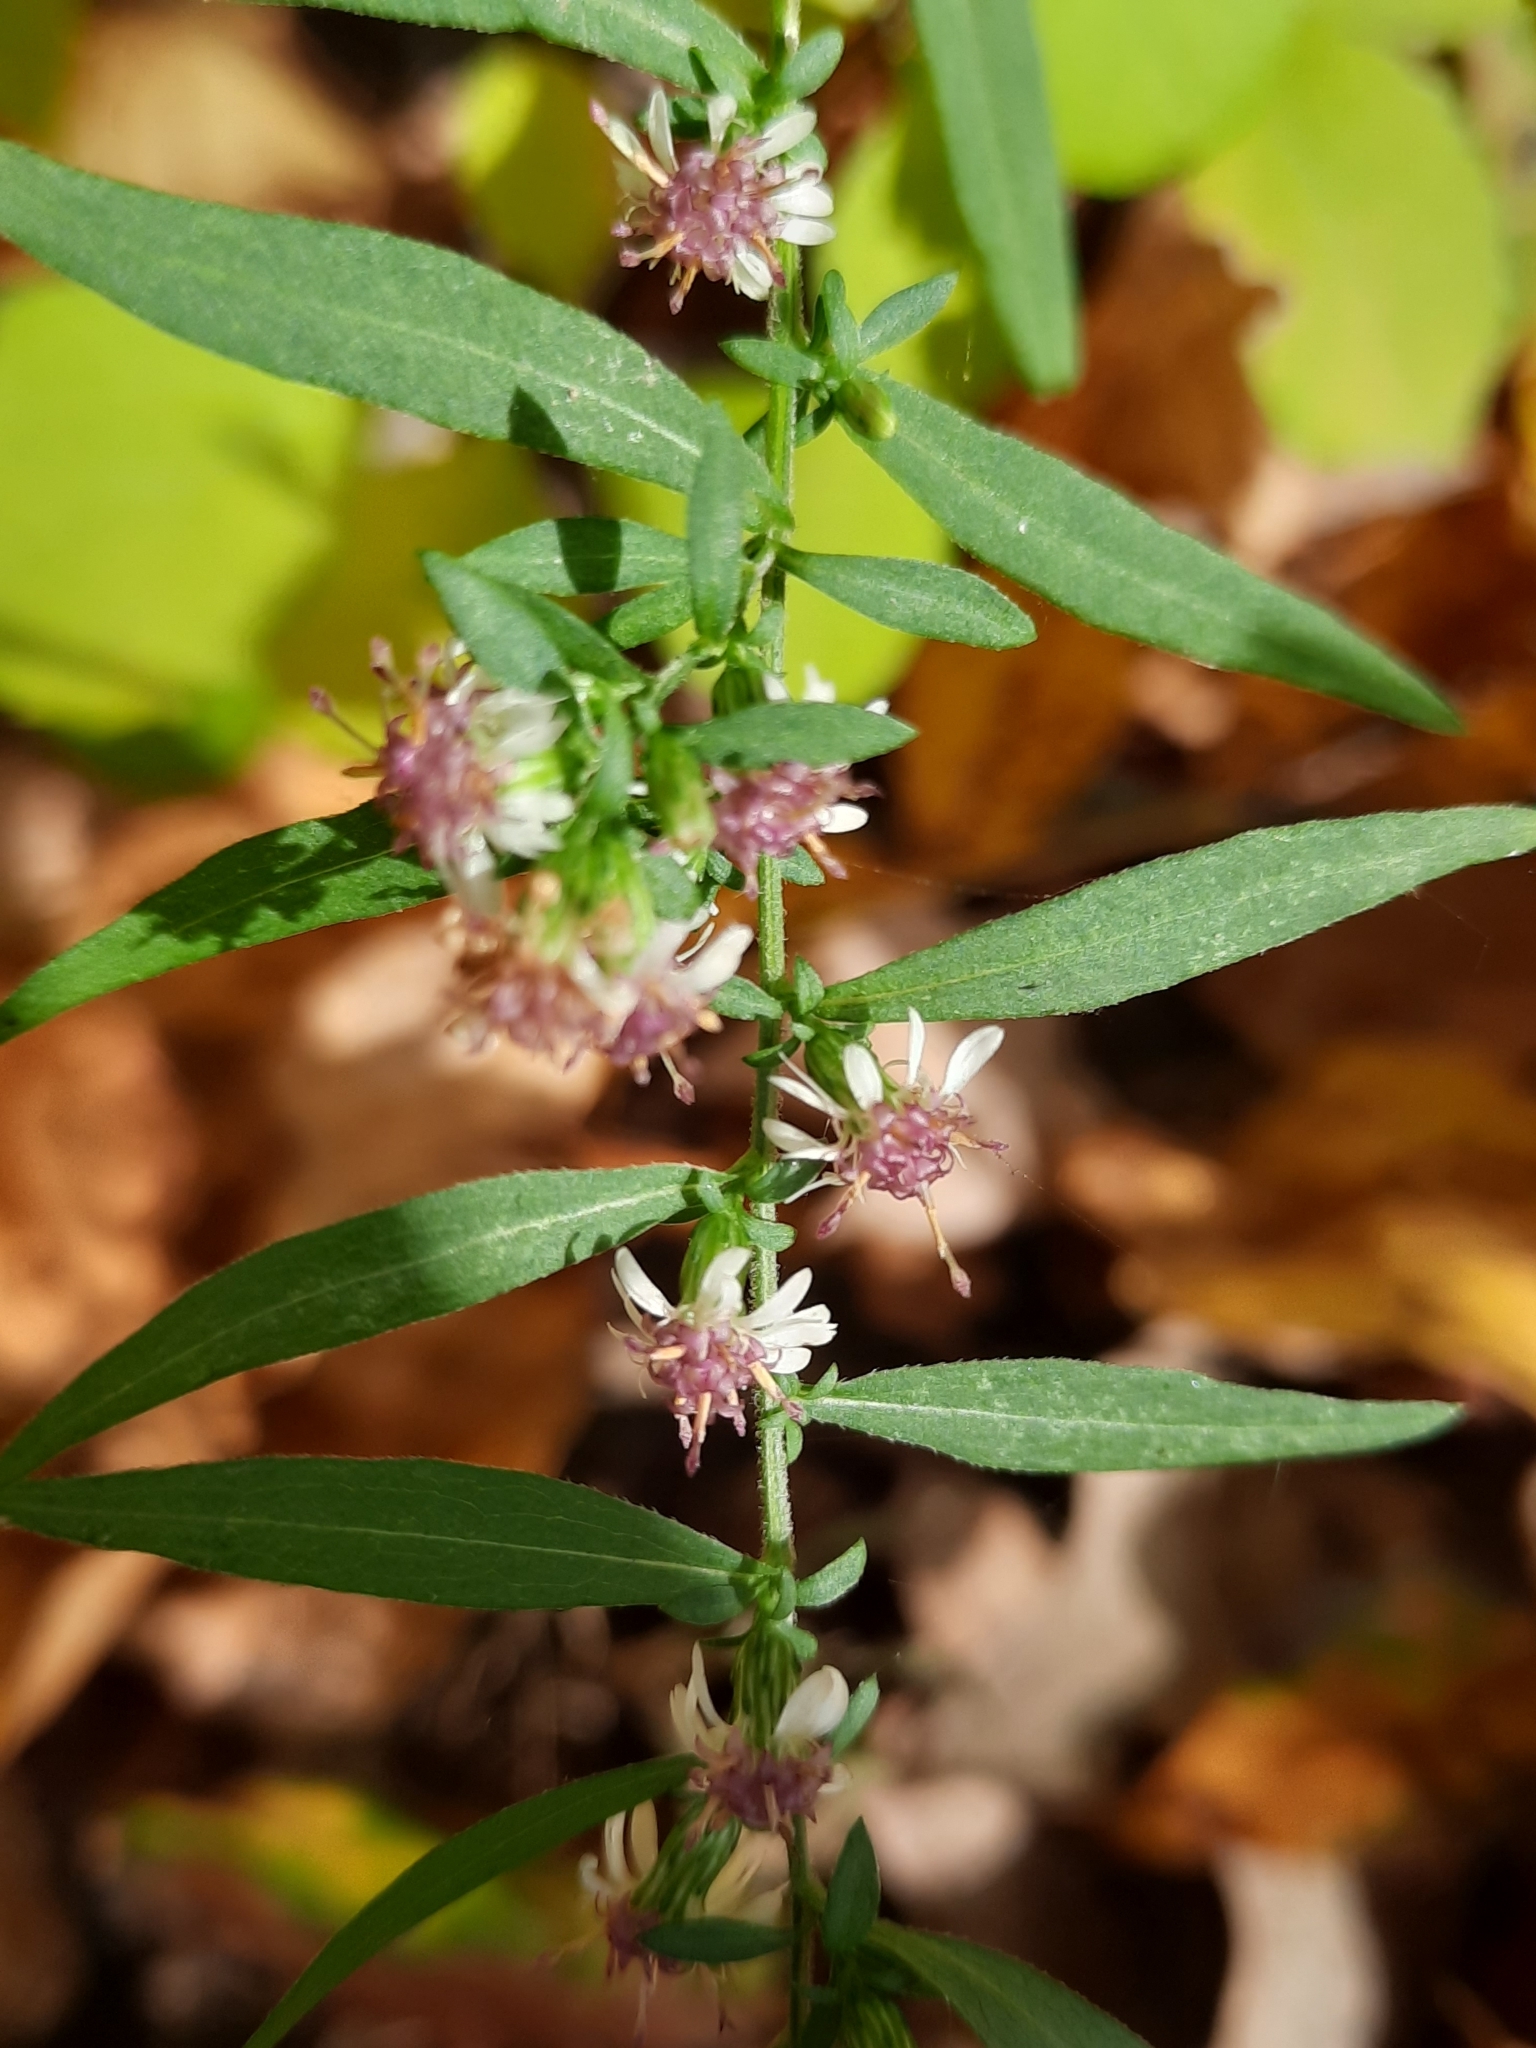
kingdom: Plantae
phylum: Tracheophyta
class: Magnoliopsida
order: Asterales
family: Asteraceae
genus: Symphyotrichum
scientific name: Symphyotrichum lateriflorum
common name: Calico aster
